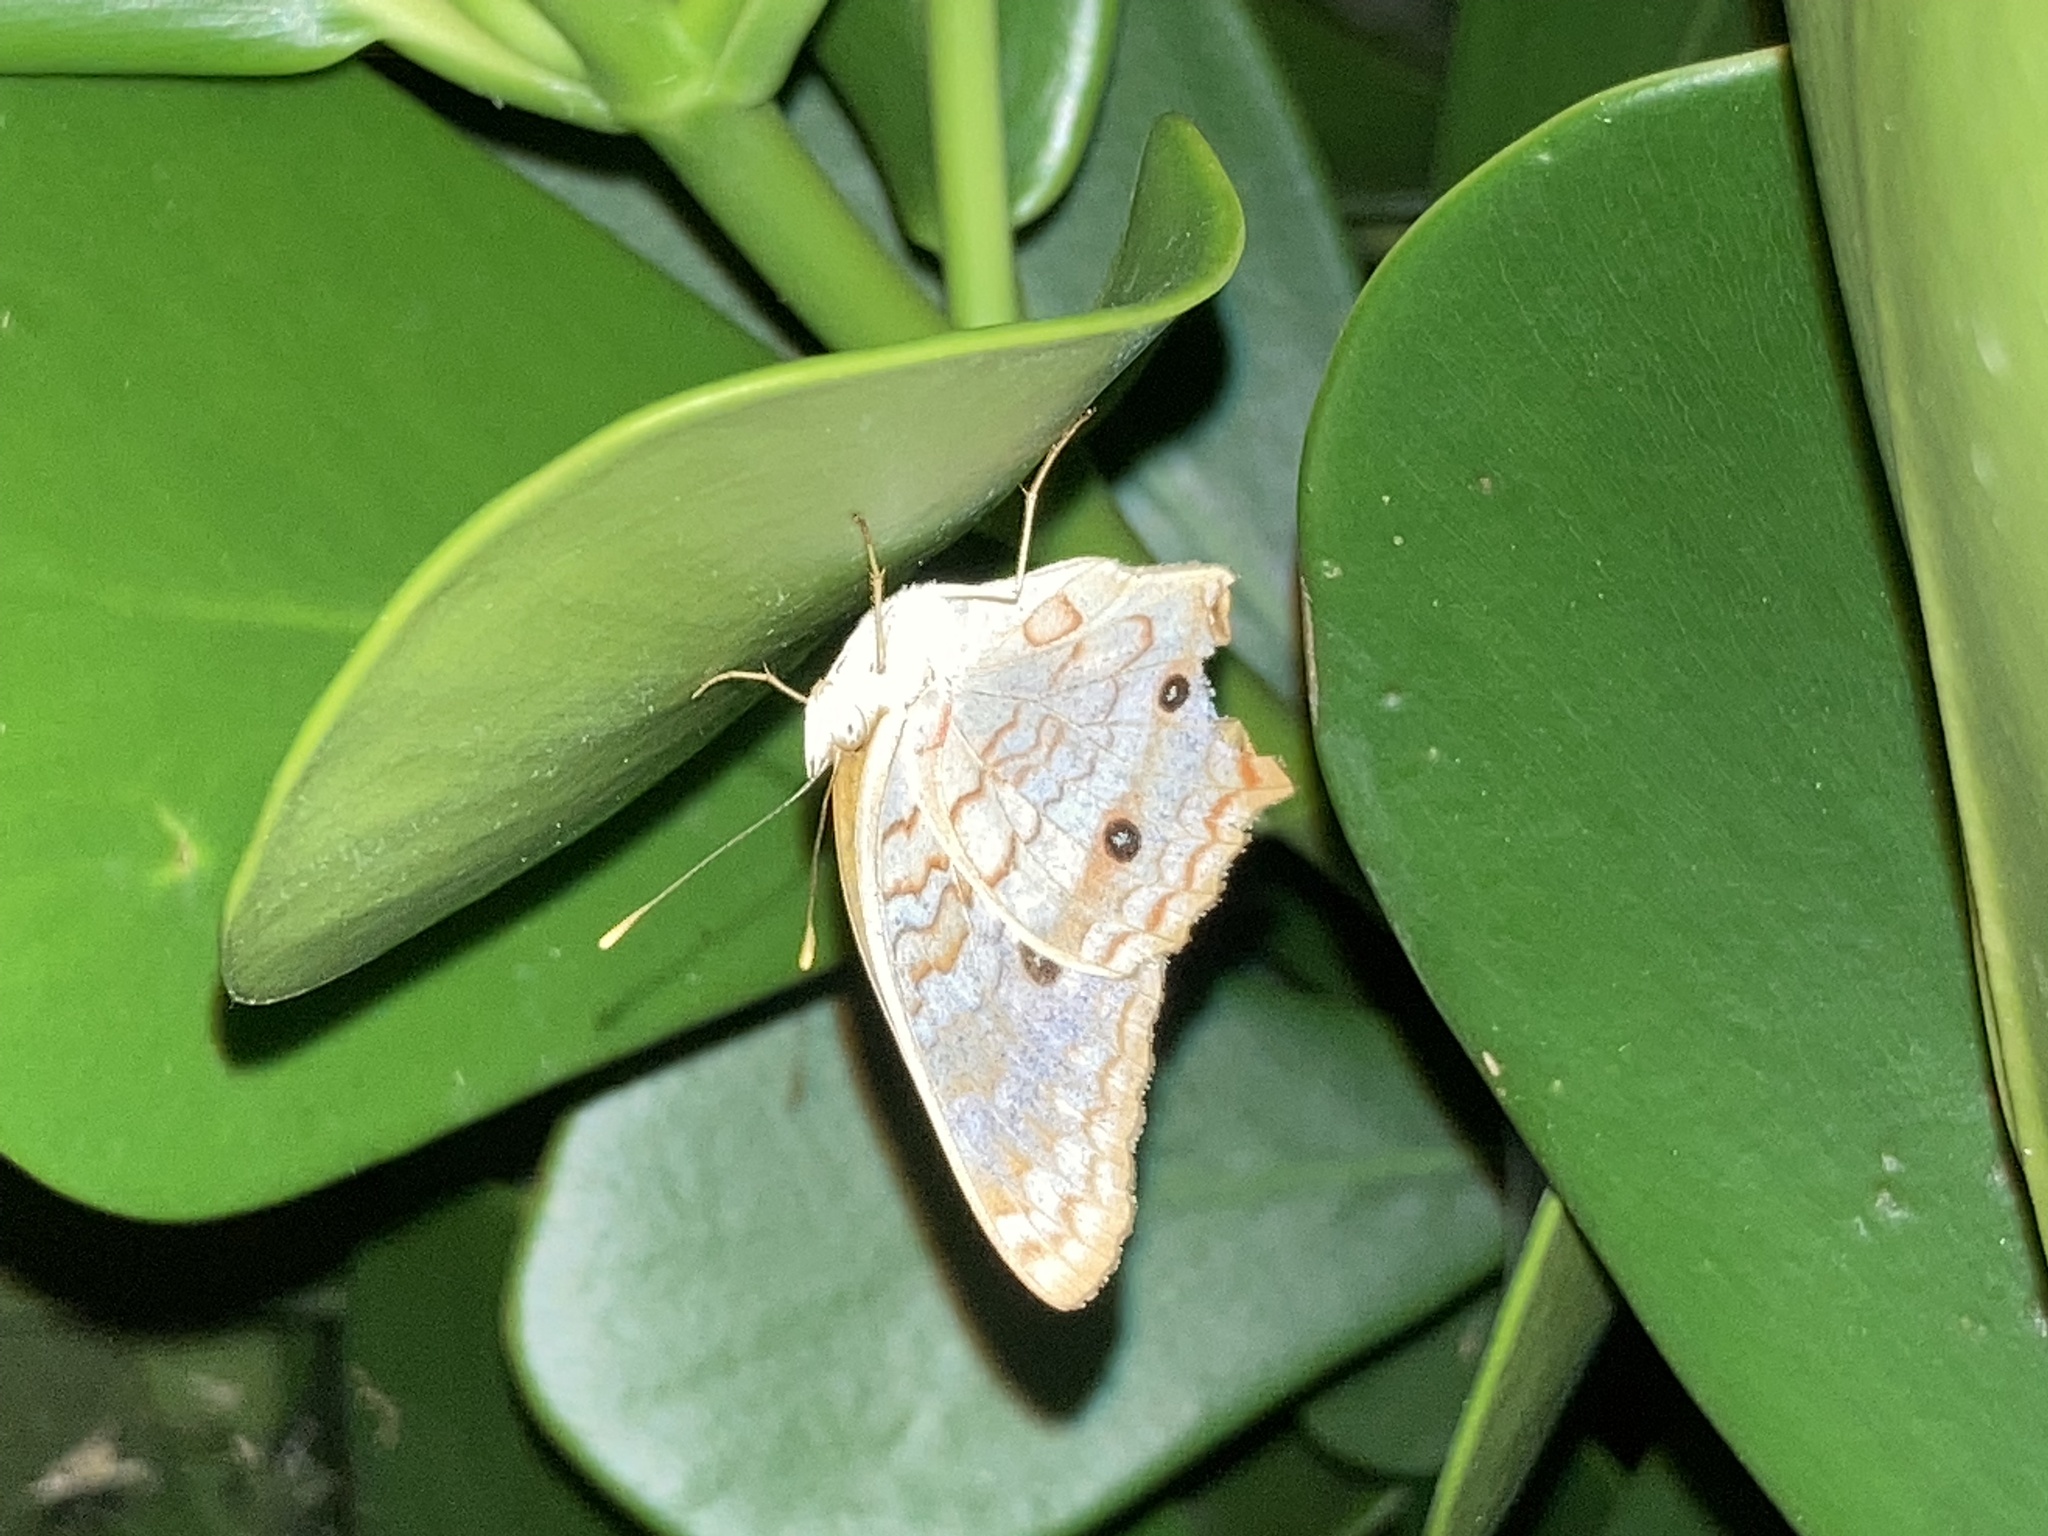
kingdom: Animalia
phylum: Arthropoda
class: Insecta
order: Lepidoptera
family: Nymphalidae
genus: Anartia
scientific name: Anartia jatrophae
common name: White peacock
